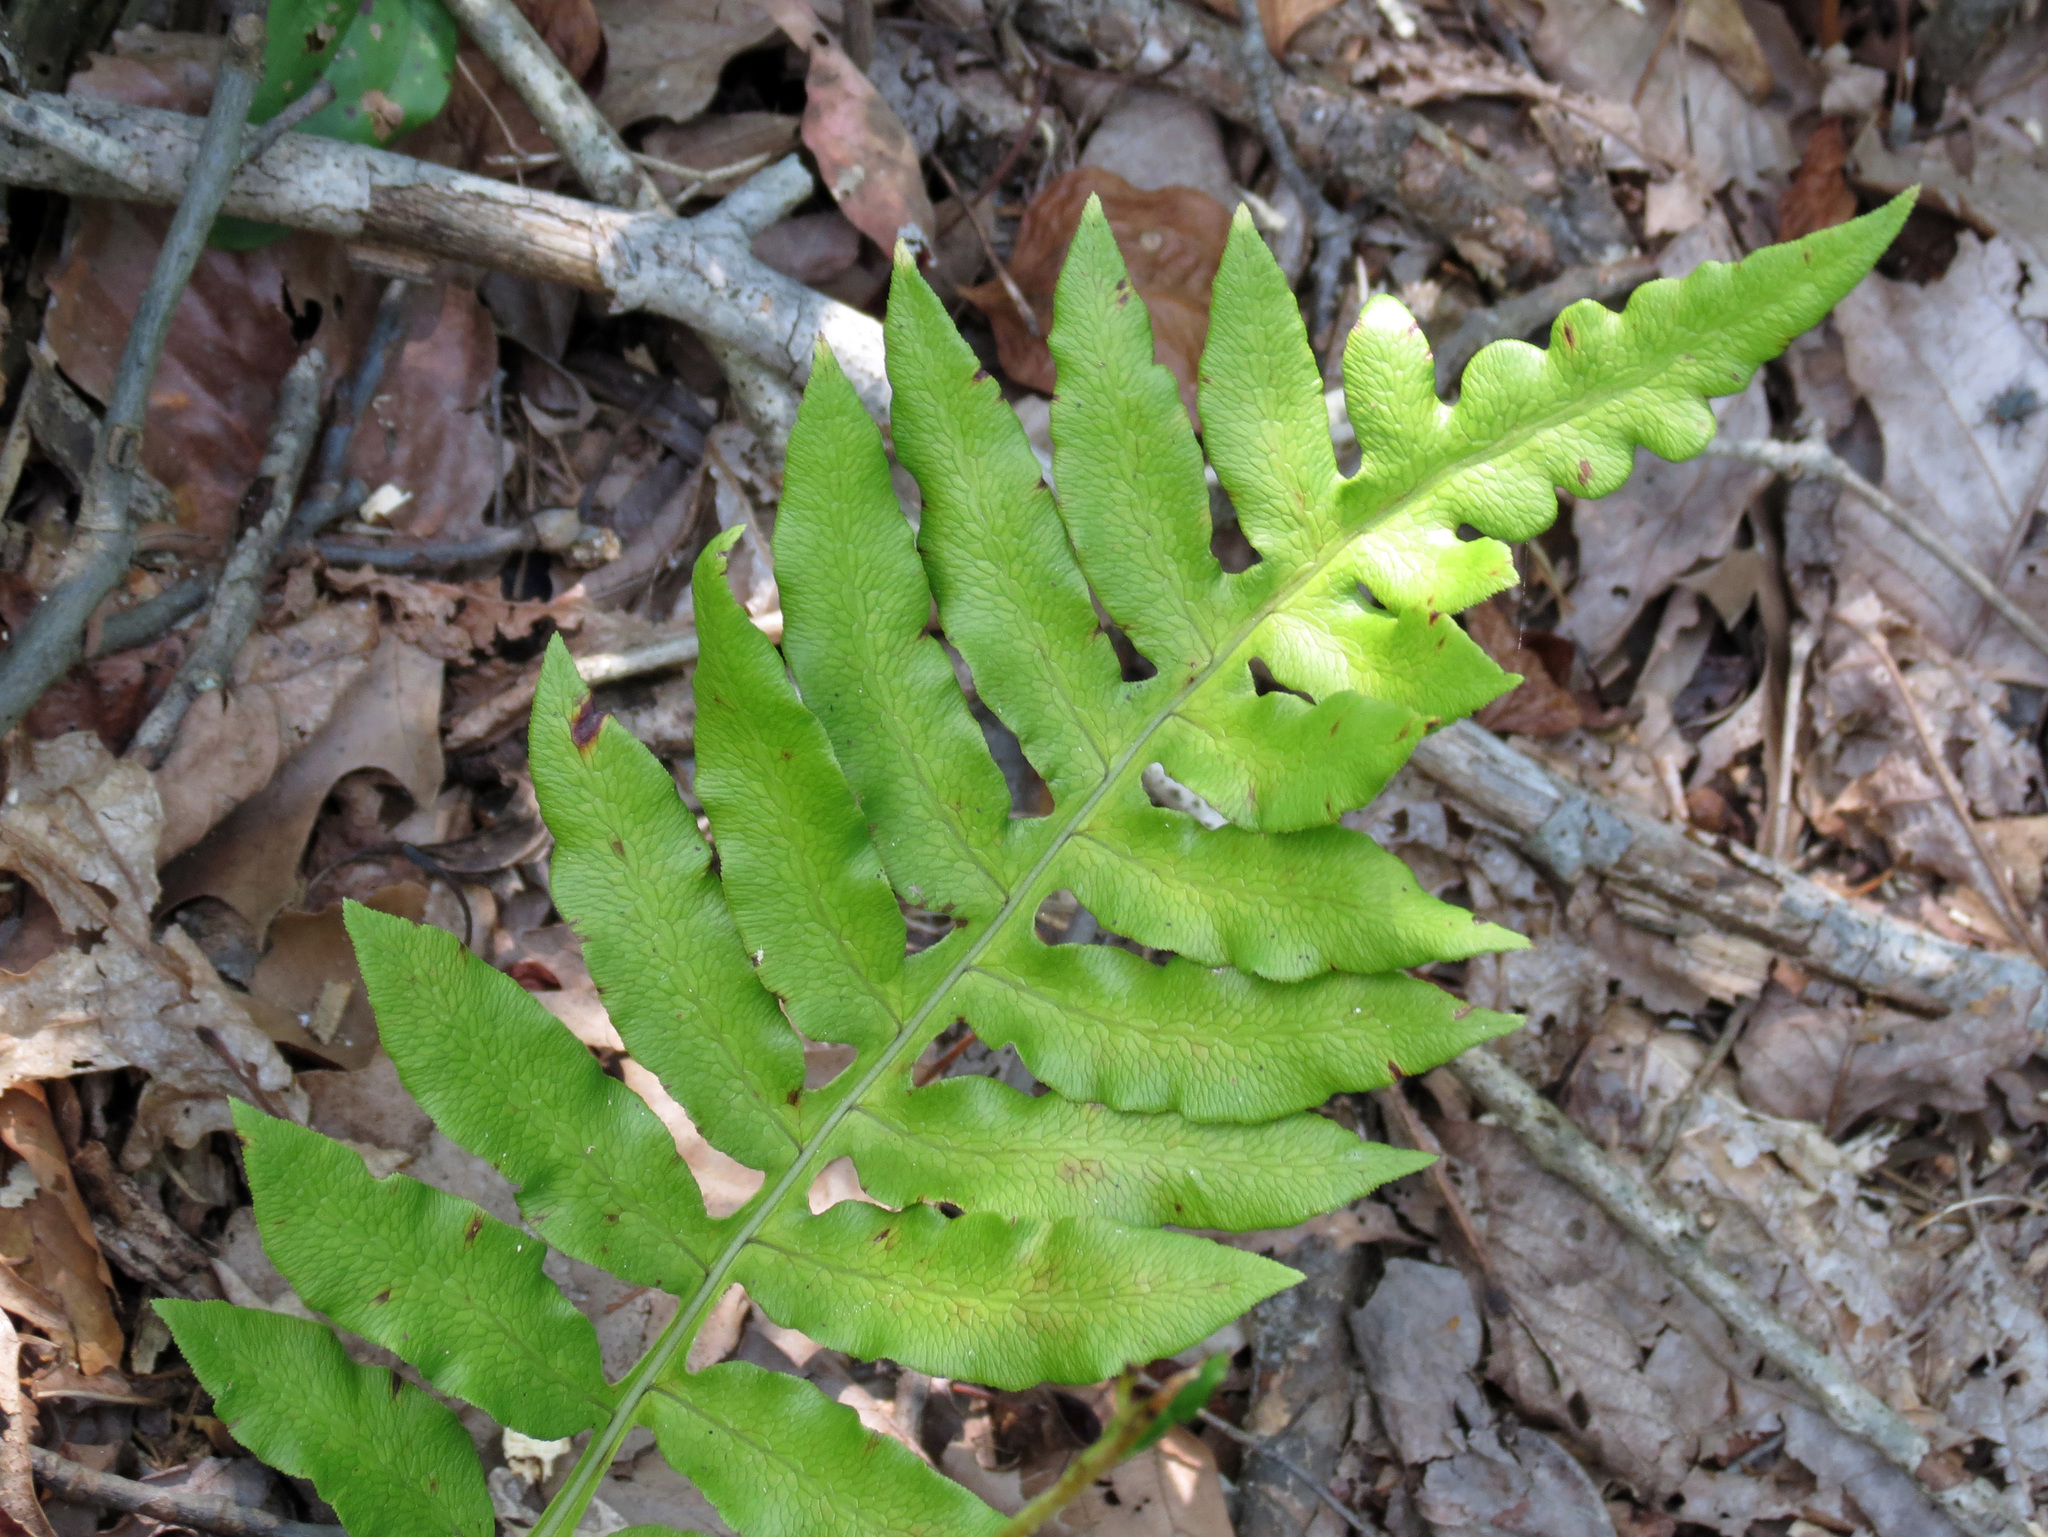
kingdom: Plantae
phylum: Tracheophyta
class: Polypodiopsida
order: Polypodiales
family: Onocleaceae
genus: Onoclea
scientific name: Onoclea sensibilis
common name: Sensitive fern
